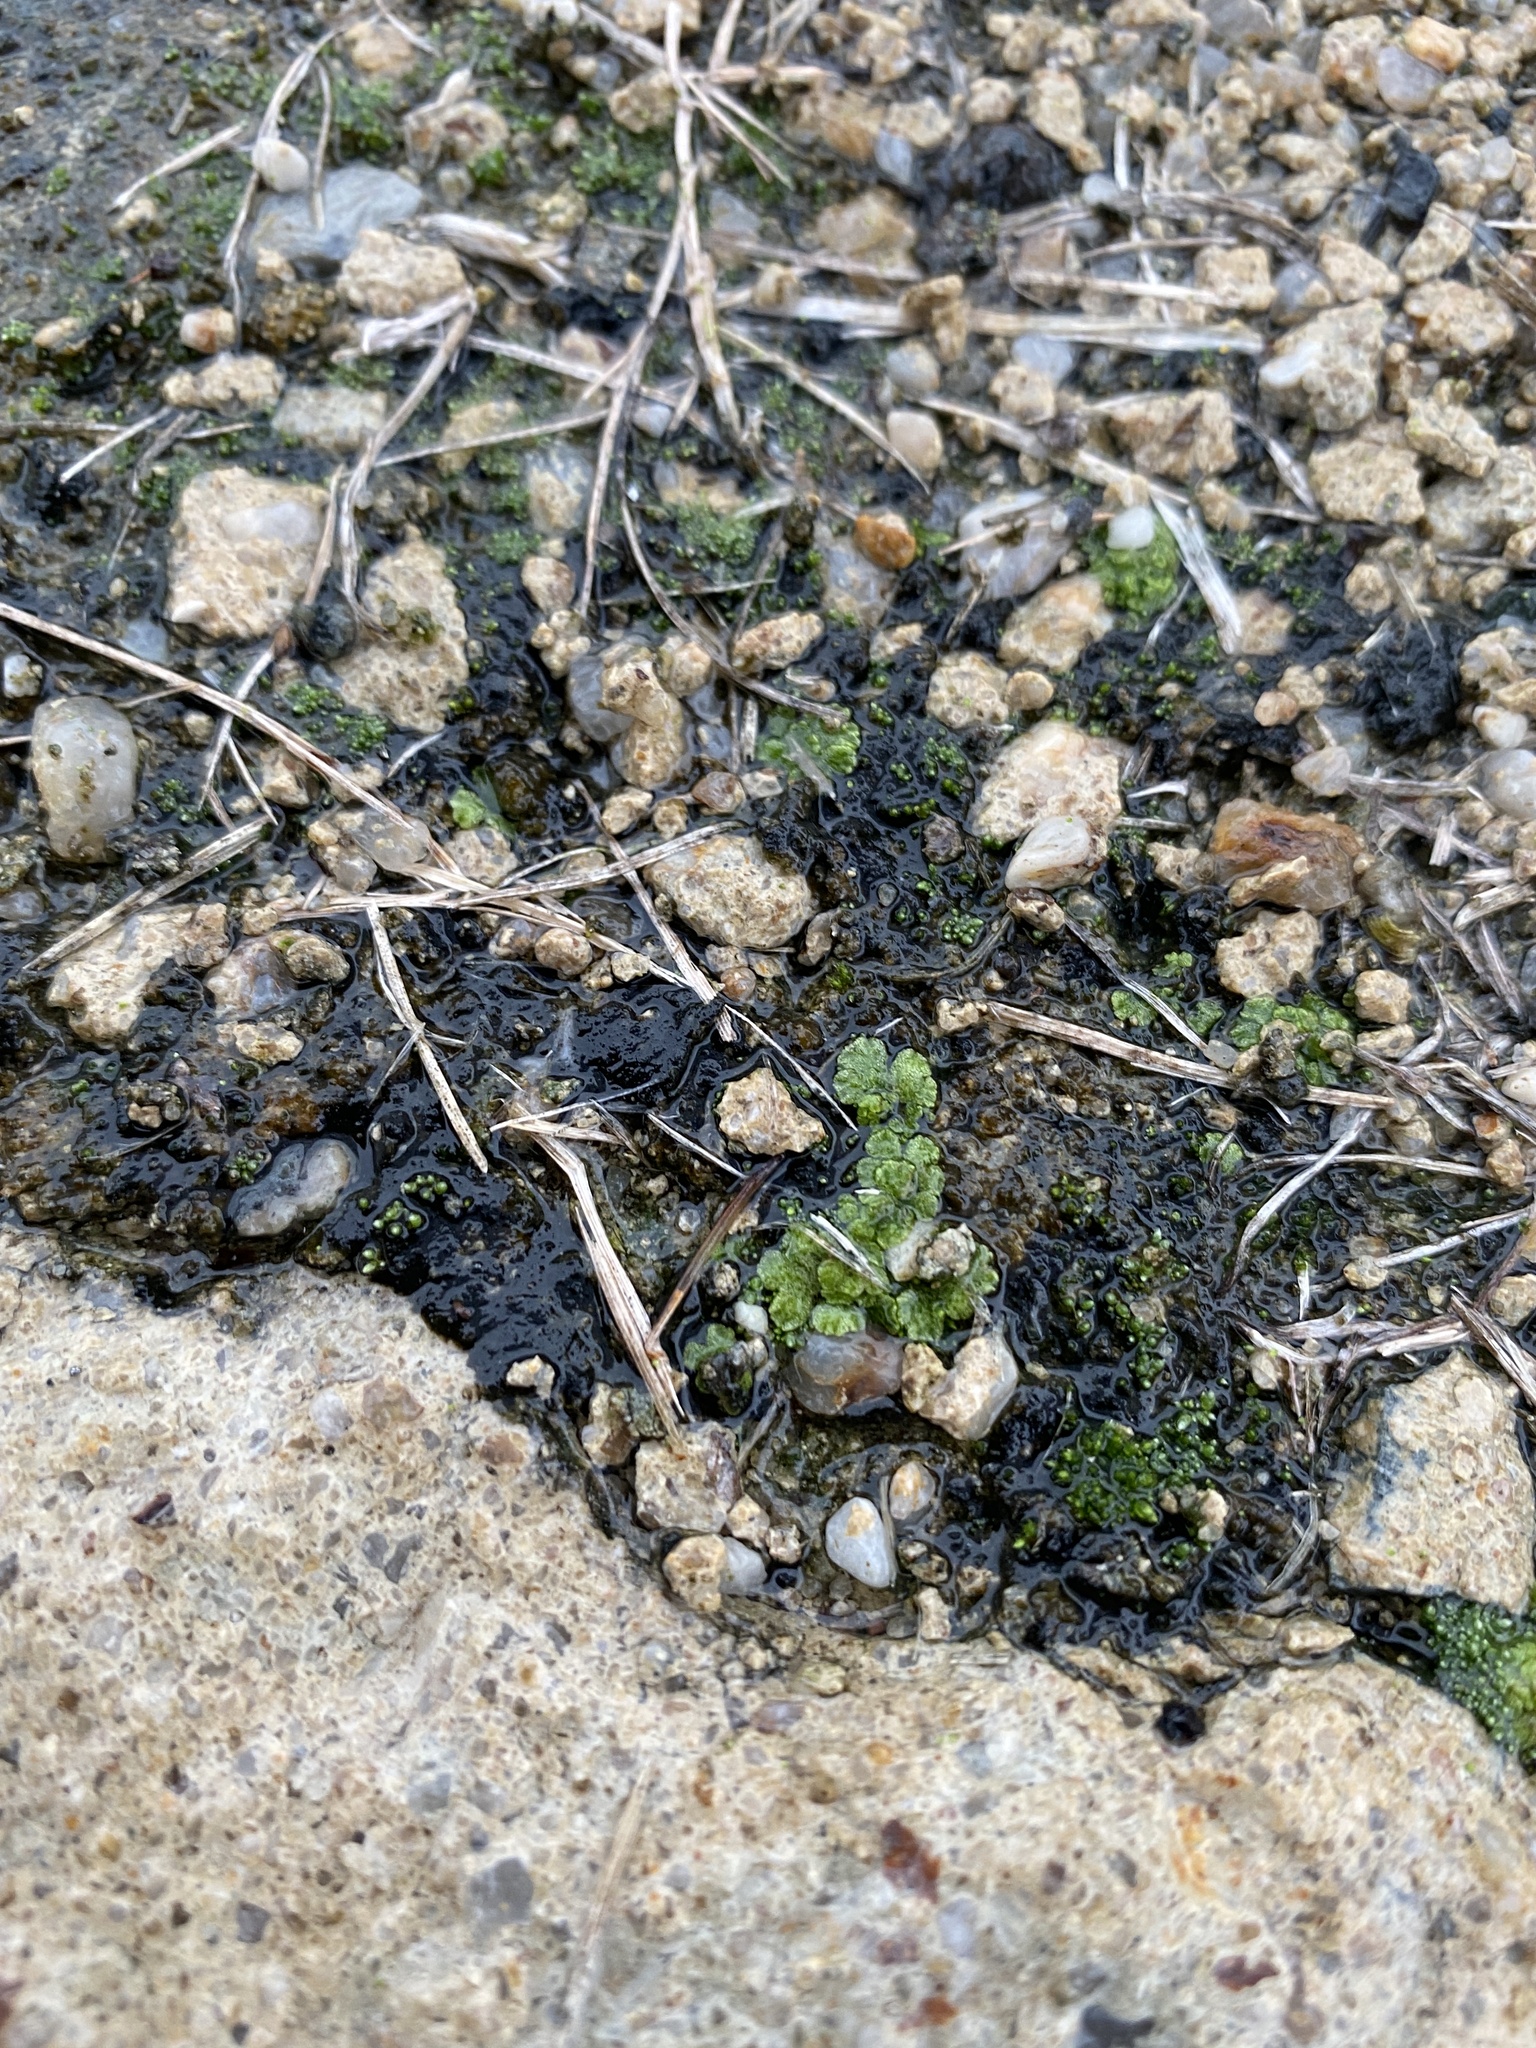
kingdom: Plantae
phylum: Marchantiophyta
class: Marchantiopsida
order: Marchantiales
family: Ricciaceae
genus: Riccia
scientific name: Riccia cavernosa
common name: Cavernous crystalwort
